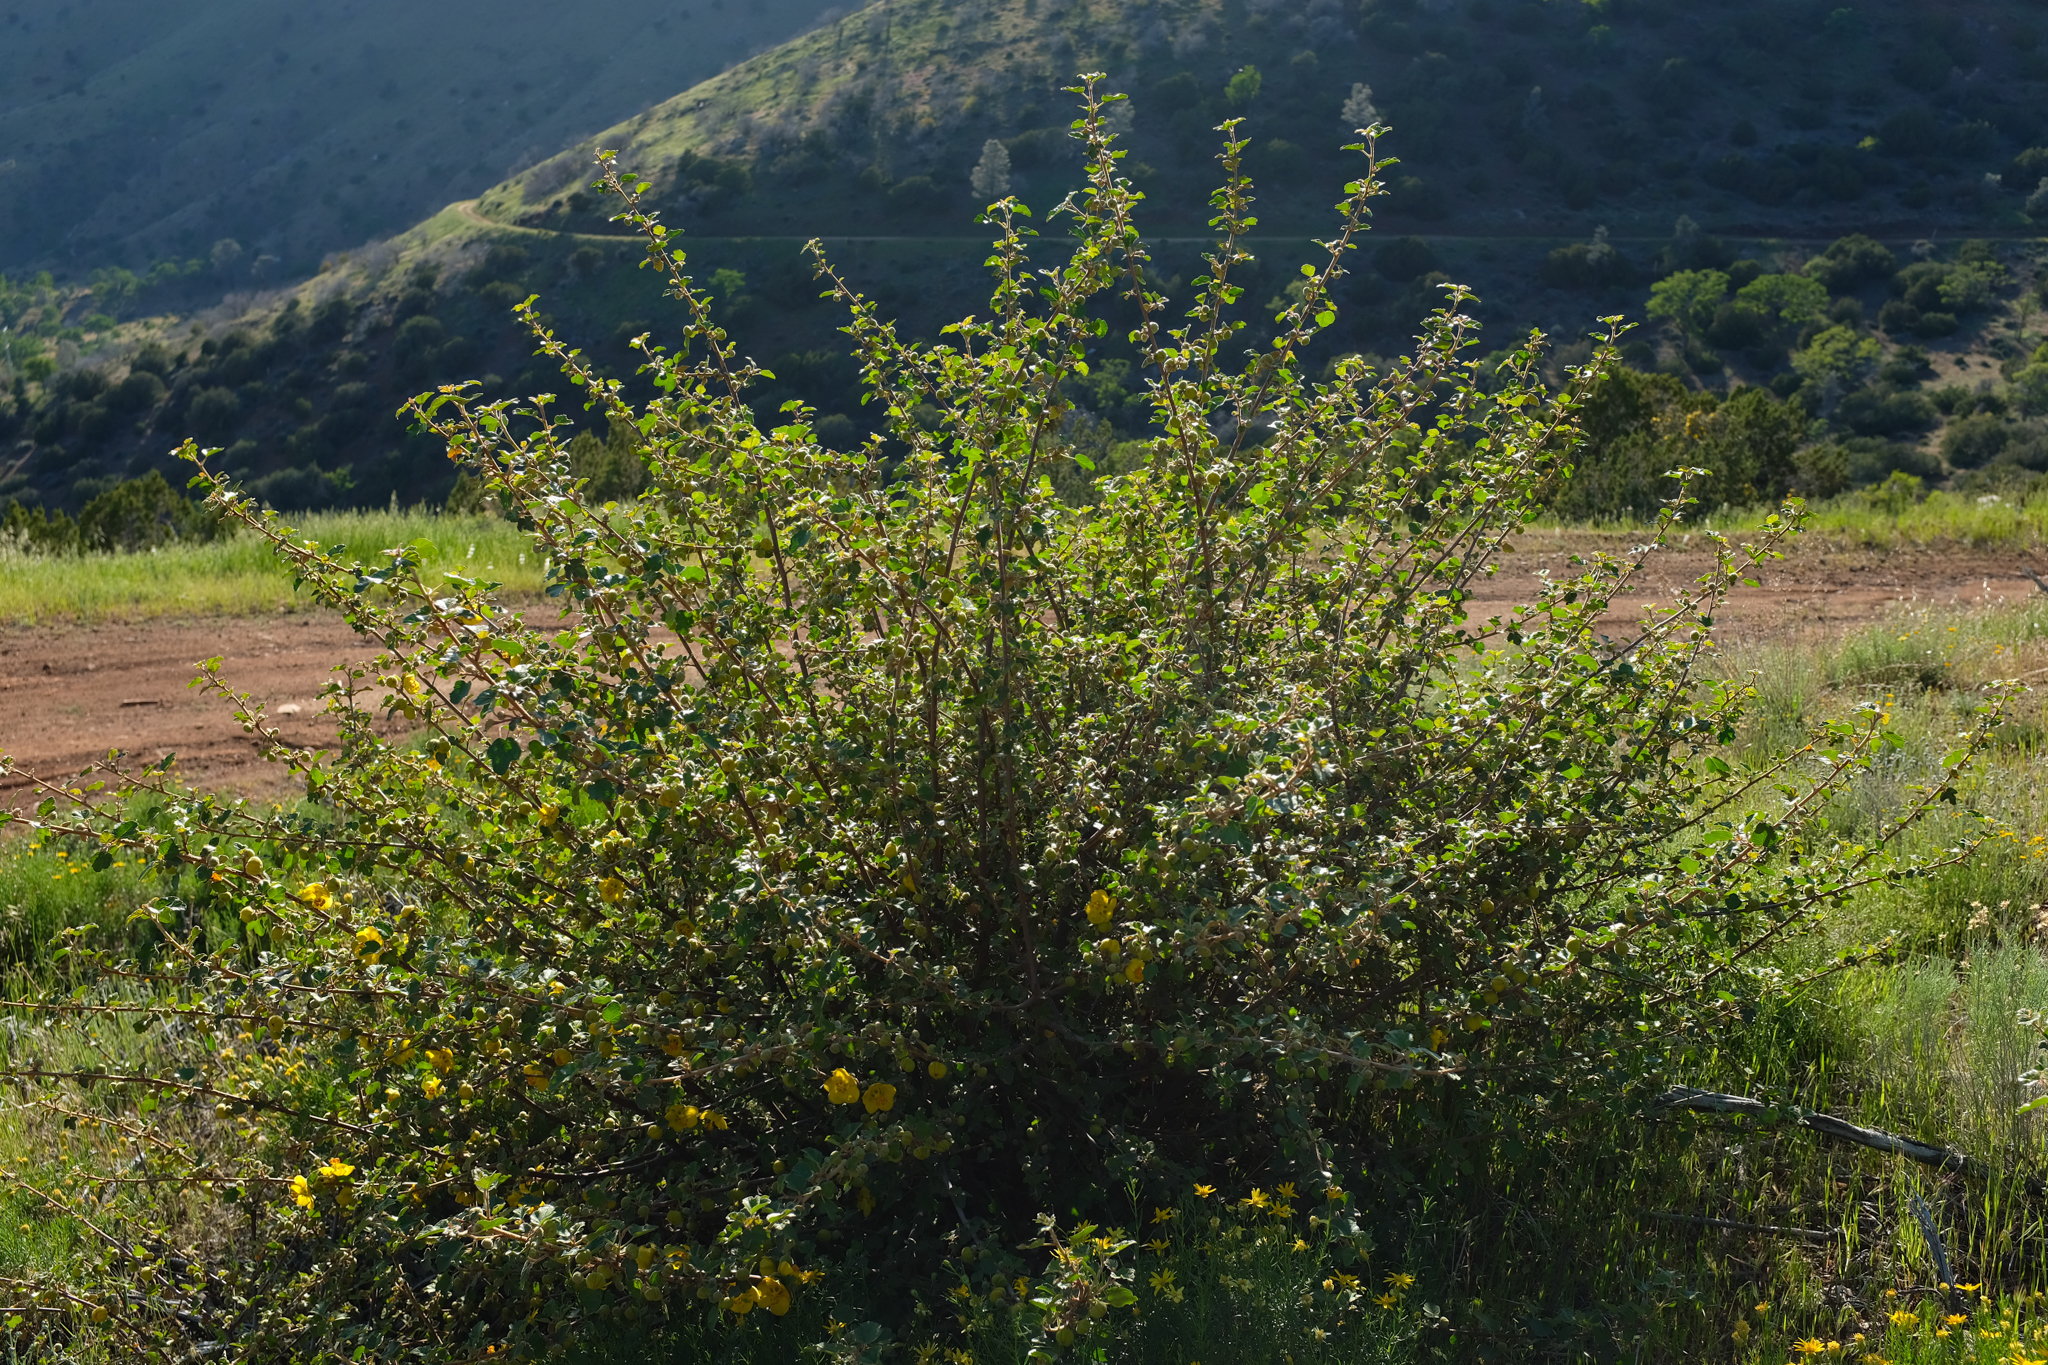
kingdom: Plantae
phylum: Tracheophyta
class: Magnoliopsida
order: Malvales
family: Malvaceae
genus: Fremontodendron
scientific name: Fremontodendron californicum
